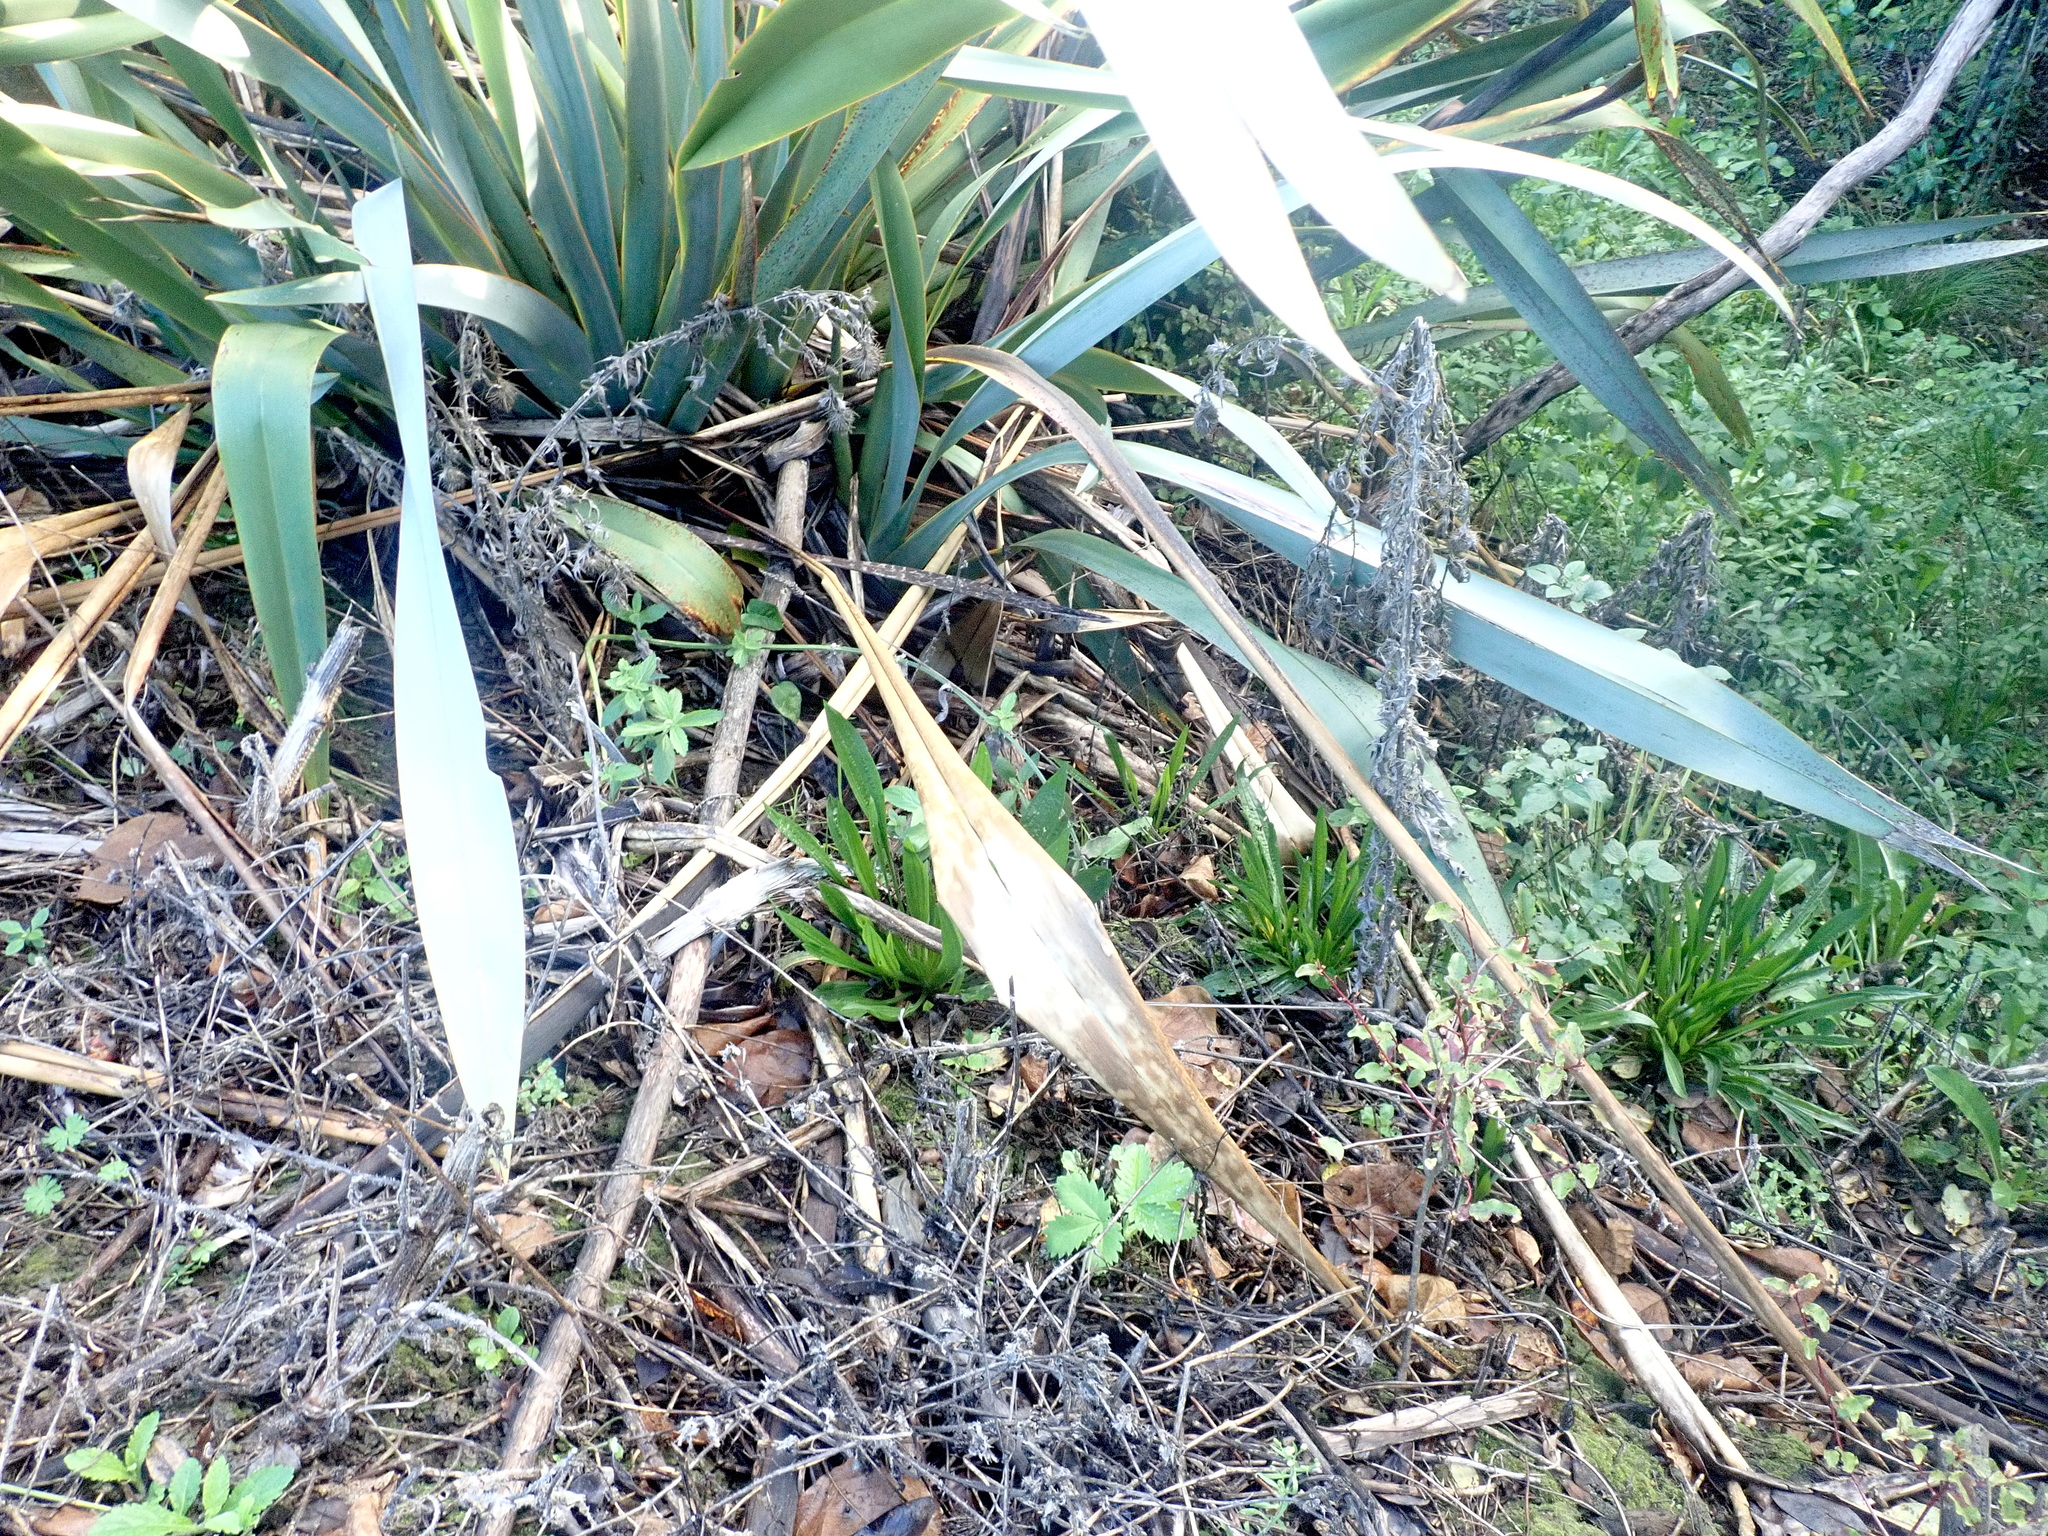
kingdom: Plantae
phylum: Tracheophyta
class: Liliopsida
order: Asparagales
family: Asphodelaceae
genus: Phormium
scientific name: Phormium tenax
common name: New zealand flax
